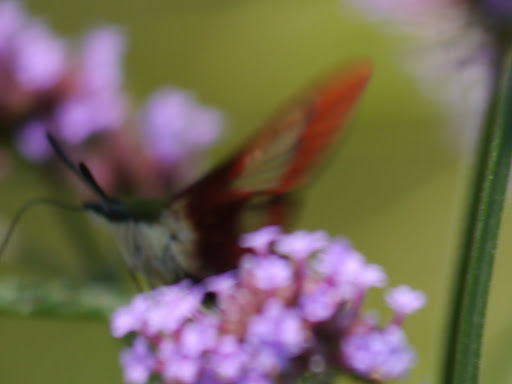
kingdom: Animalia
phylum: Arthropoda
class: Insecta
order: Lepidoptera
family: Sphingidae
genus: Hemaris
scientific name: Hemaris thysbe
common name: Common clear-wing
